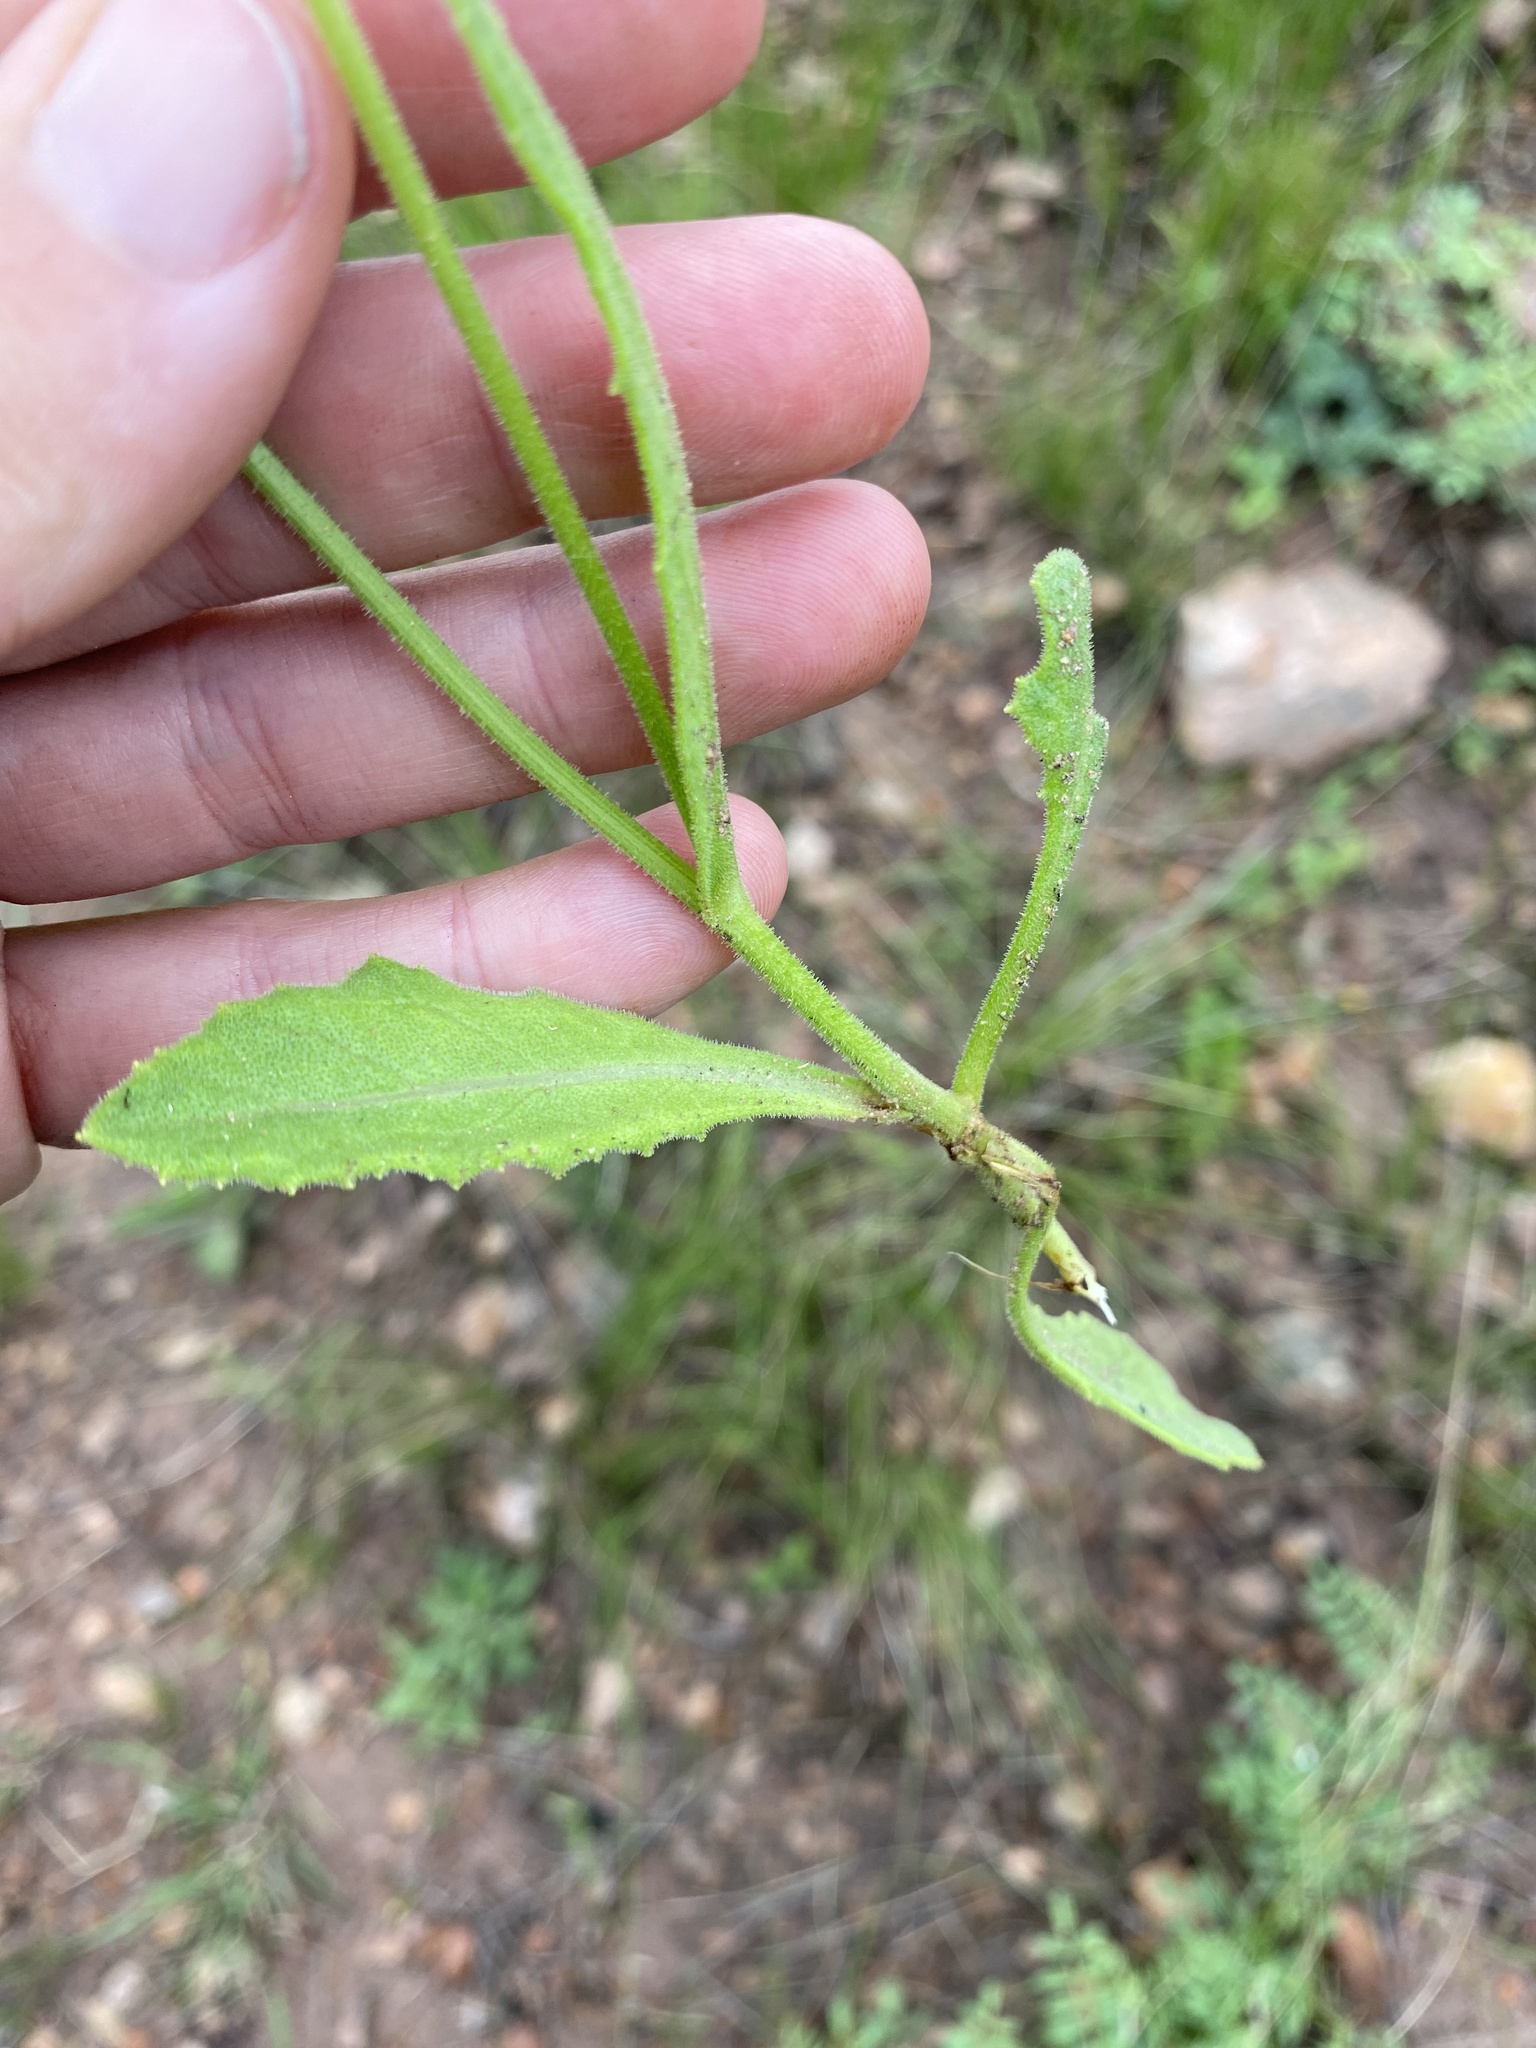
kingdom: Plantae
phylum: Tracheophyta
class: Magnoliopsida
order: Asterales
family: Asteraceae
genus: Senecio
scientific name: Senecio erubescens
